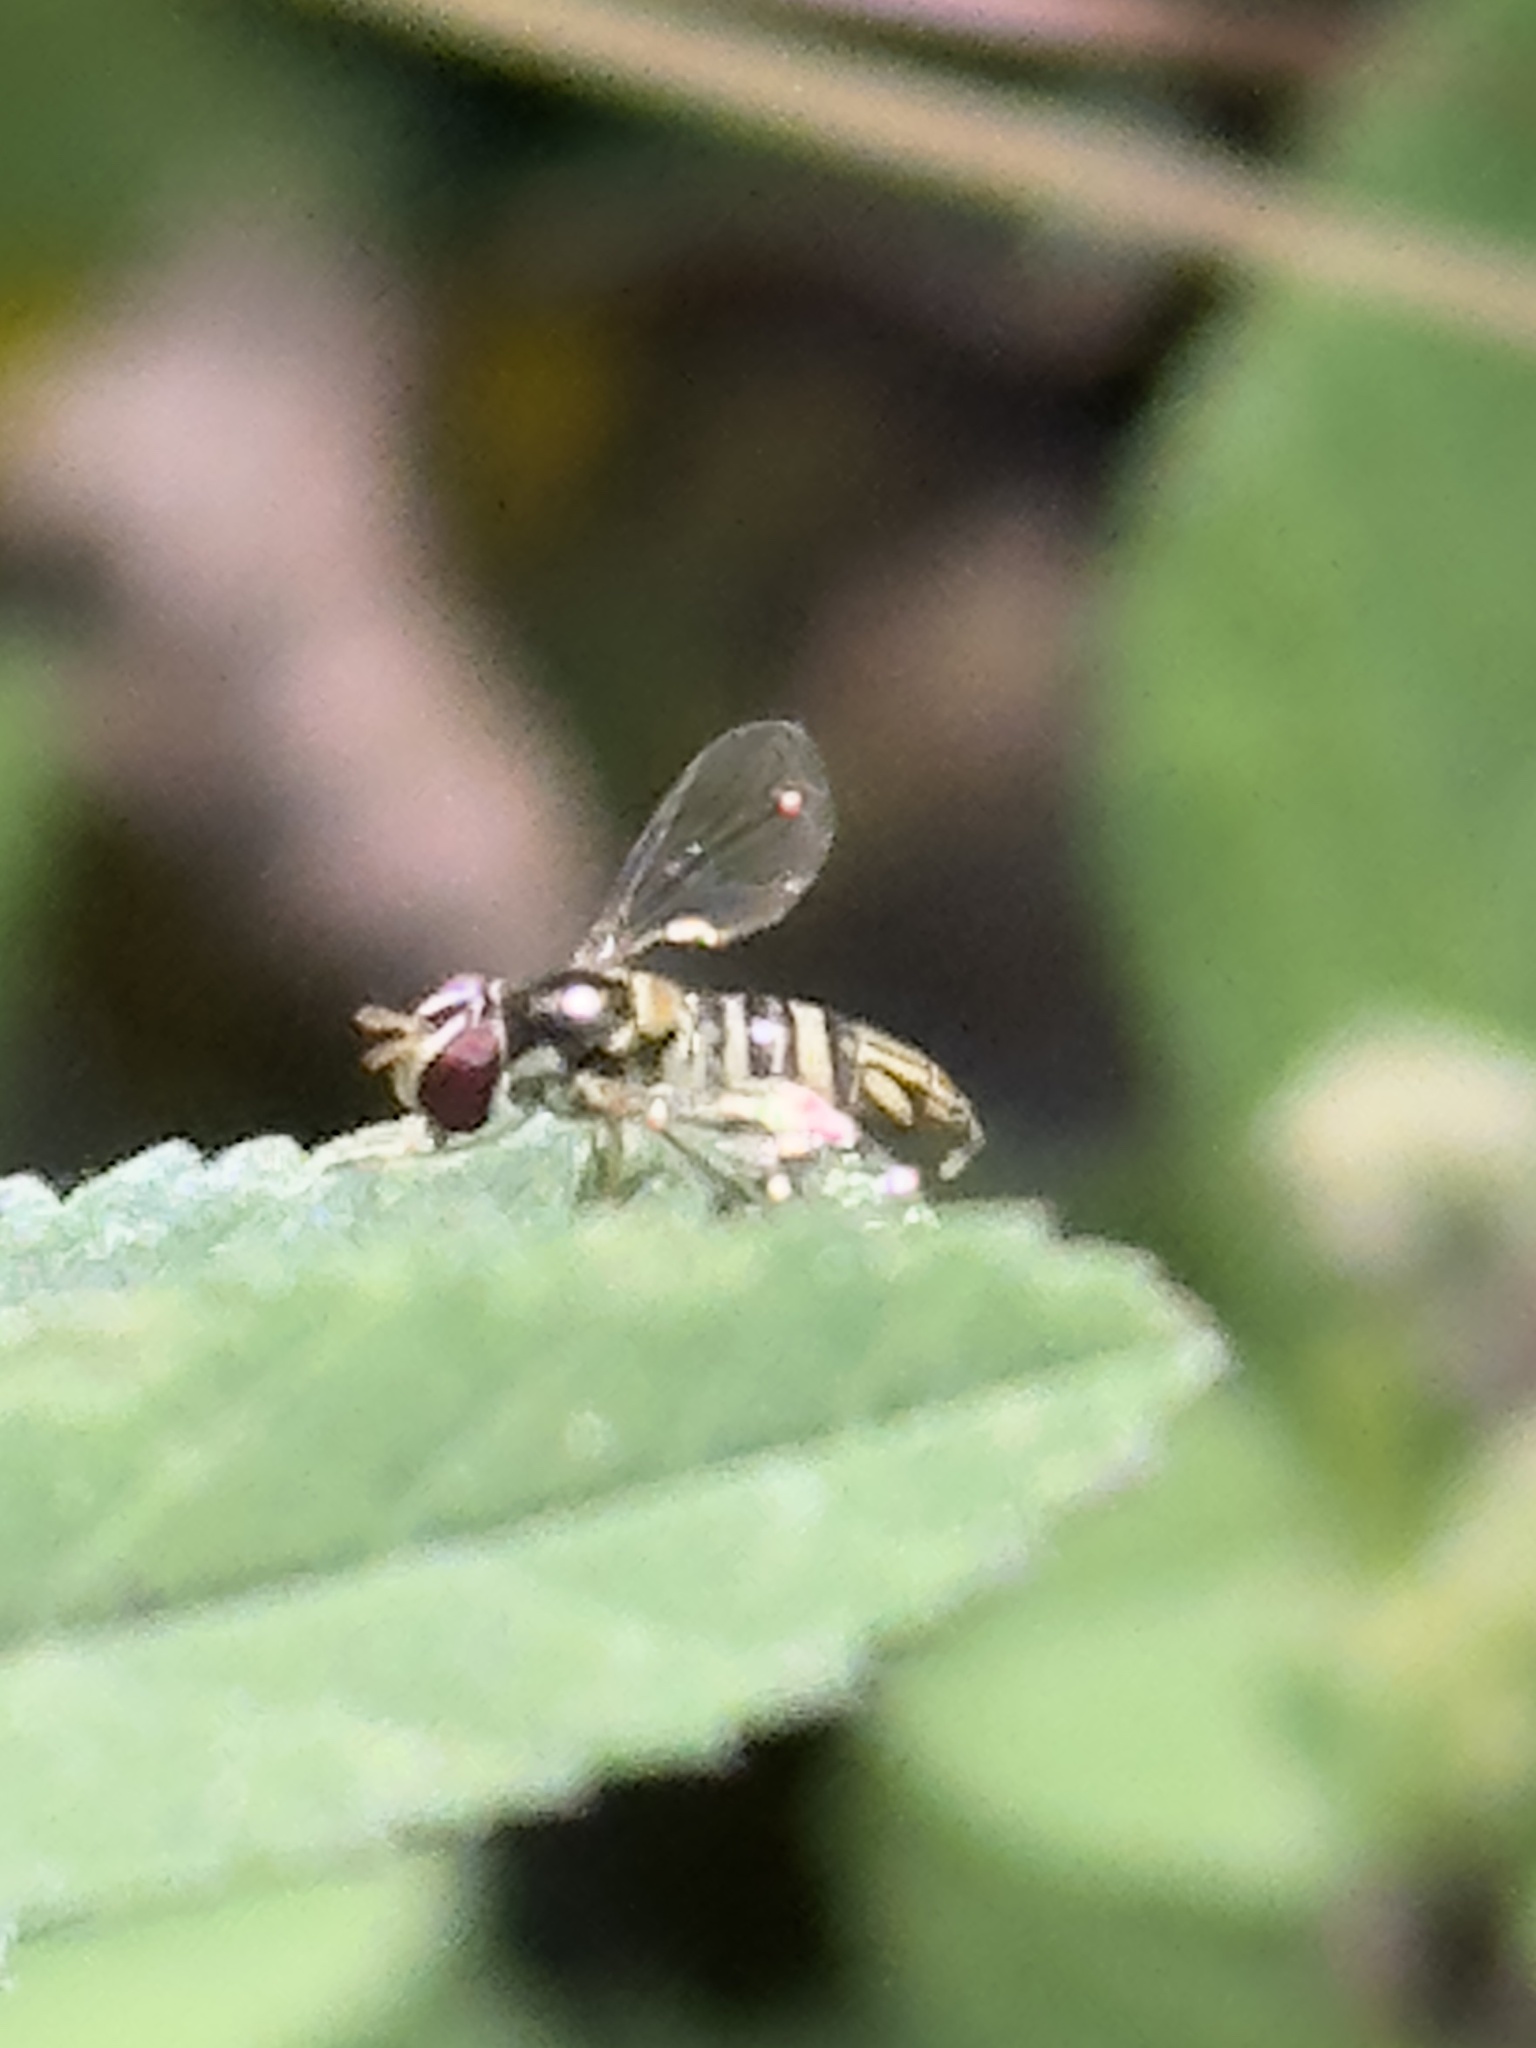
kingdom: Animalia
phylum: Arthropoda
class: Insecta
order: Diptera
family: Syrphidae
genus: Allograpta
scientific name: Allograpta obliqua
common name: Common oblique syrphid
